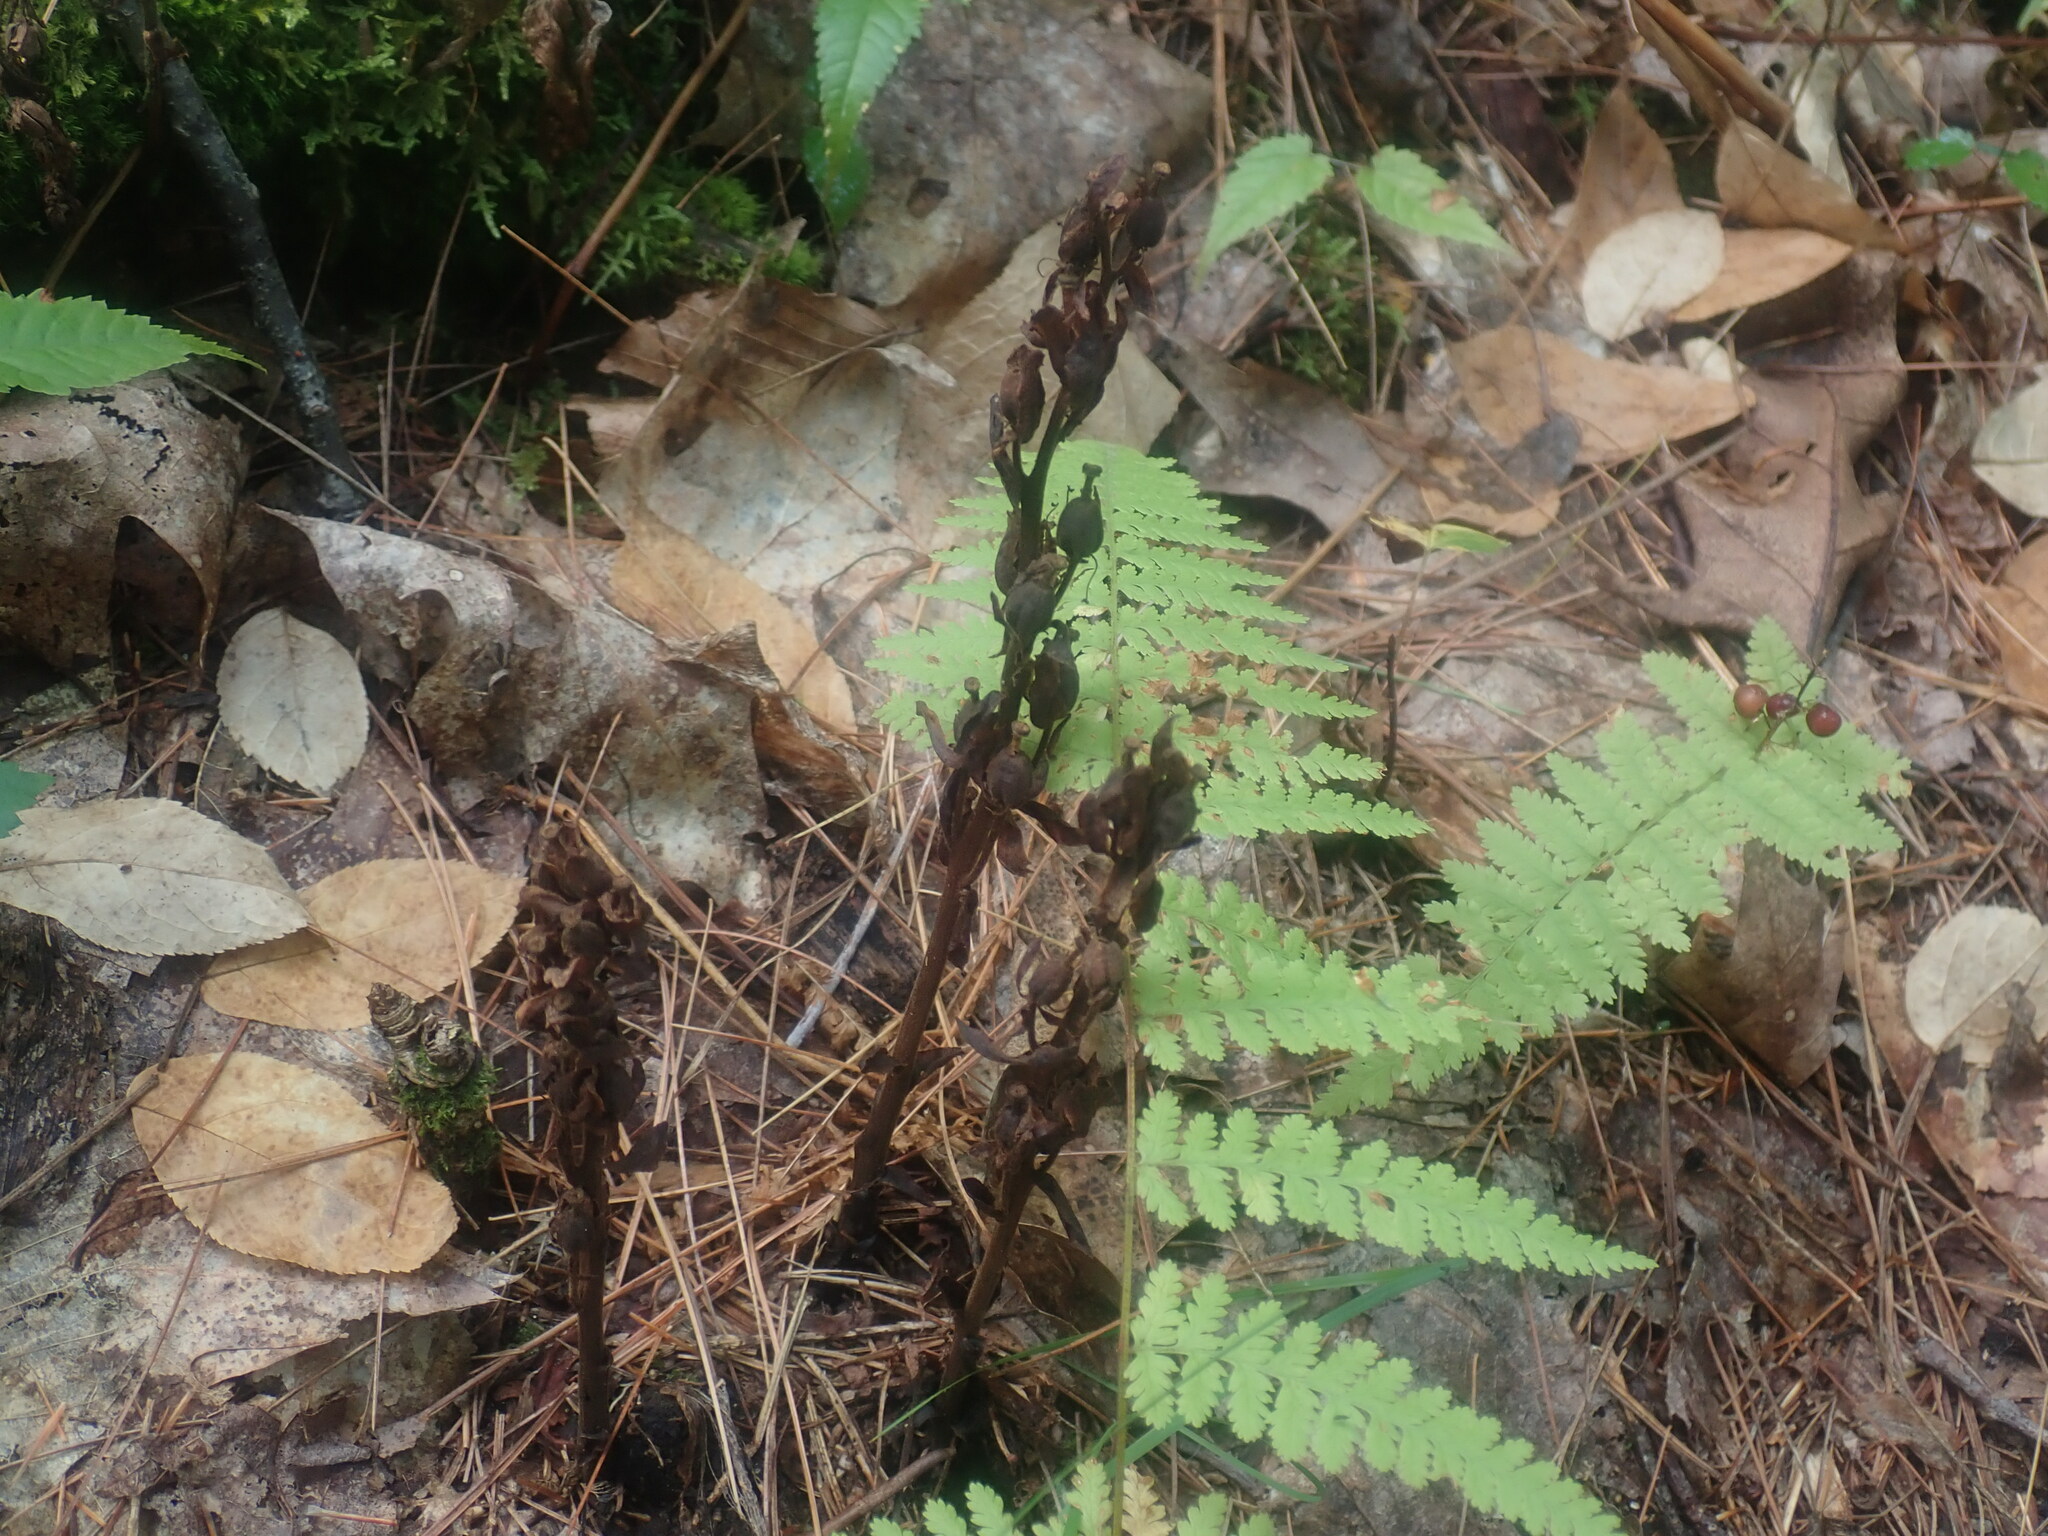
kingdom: Plantae
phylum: Tracheophyta
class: Magnoliopsida
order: Ericales
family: Ericaceae
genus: Hypopitys
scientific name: Hypopitys monotropa
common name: Yellow bird's-nest
